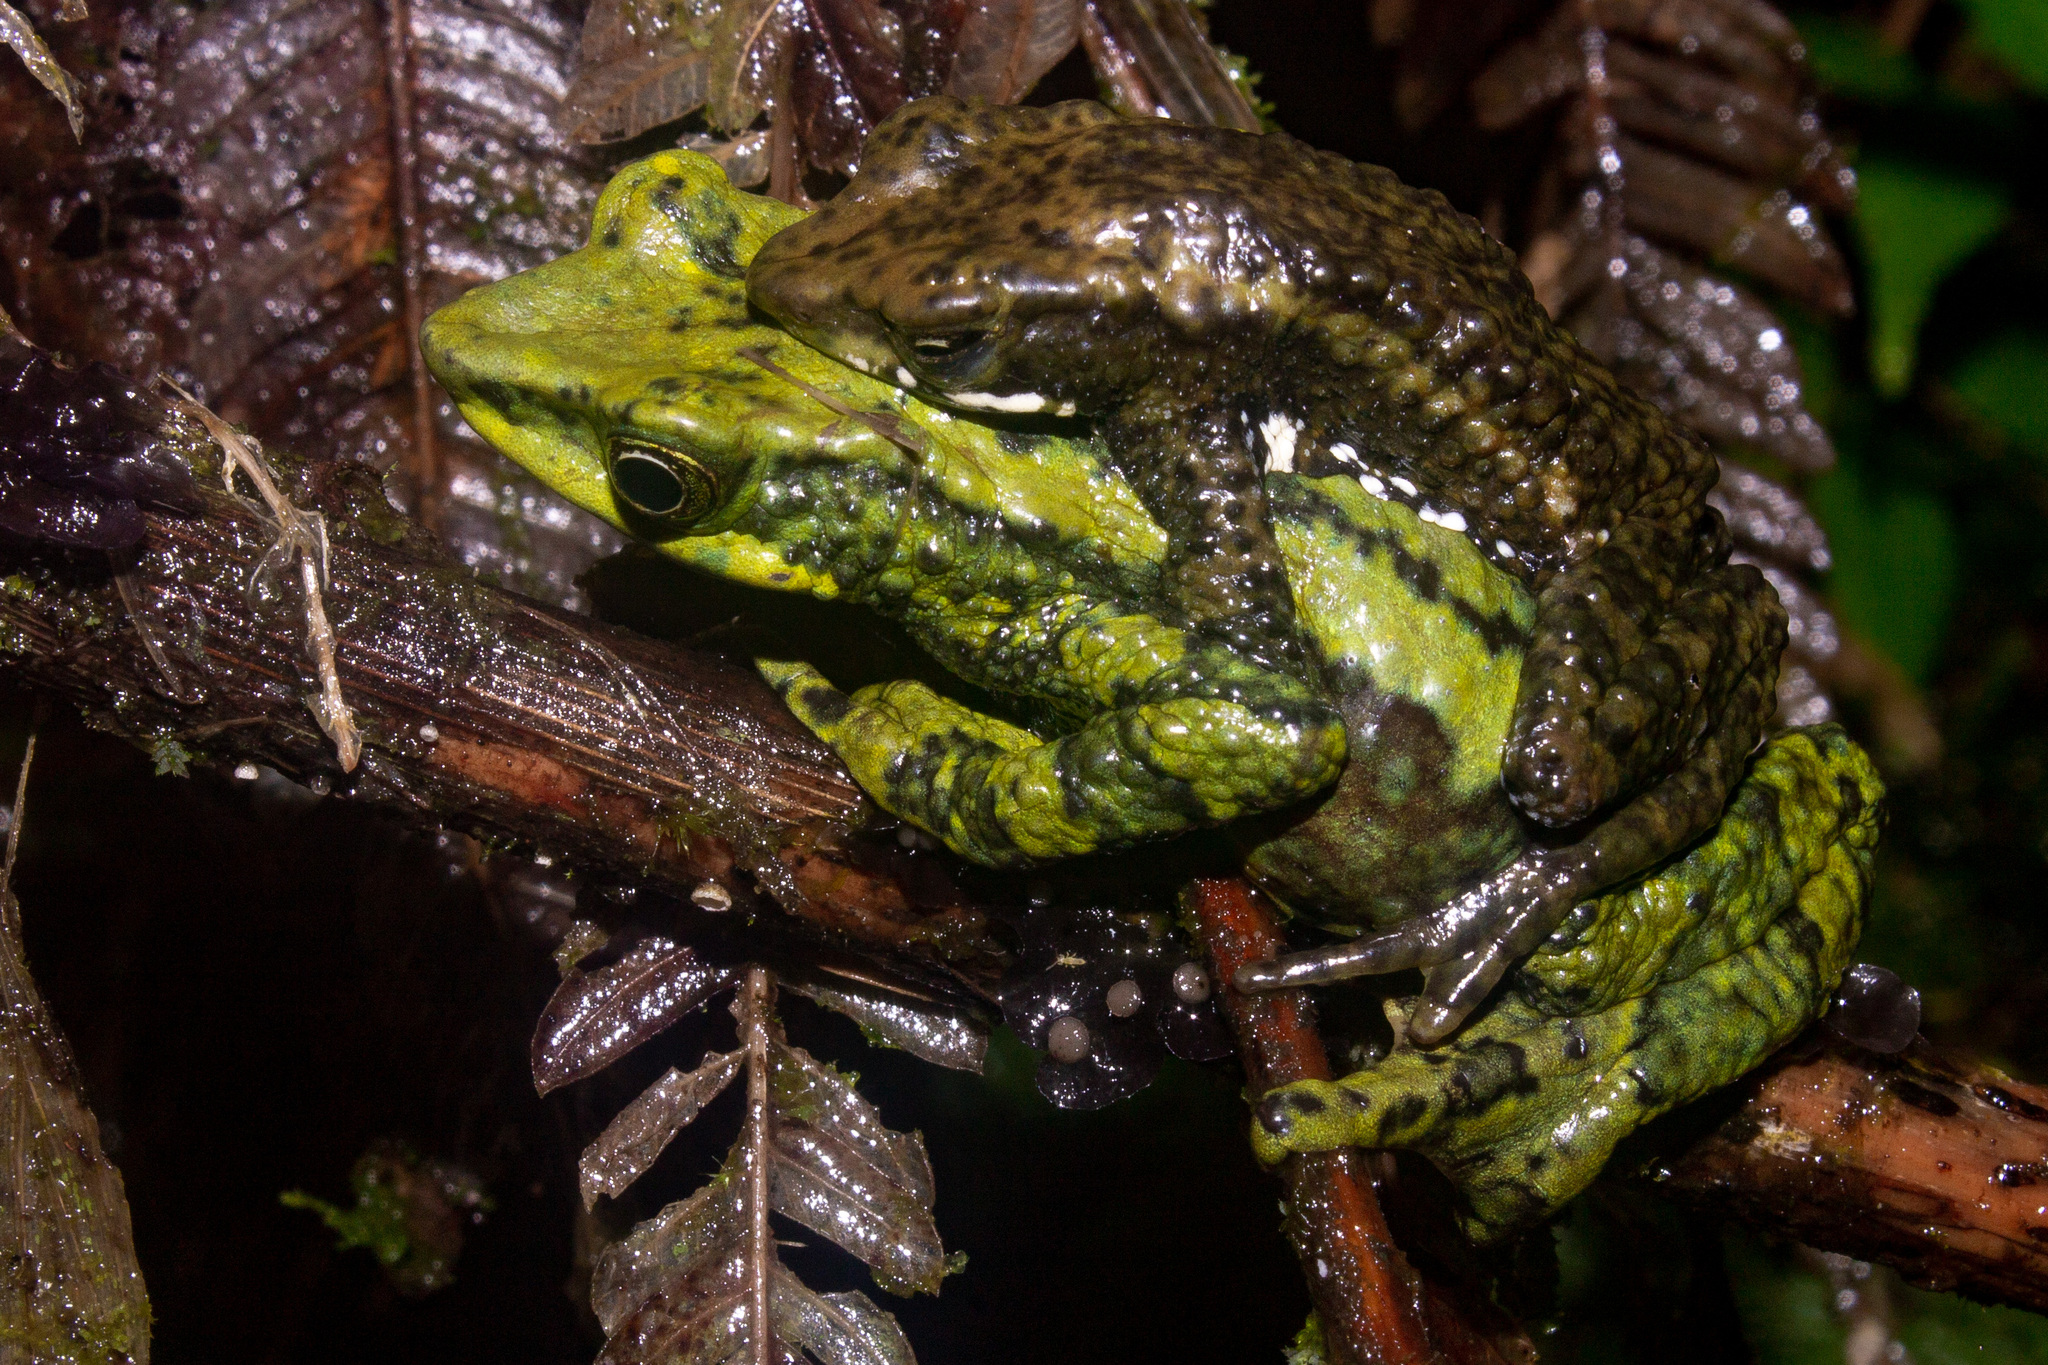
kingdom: Animalia
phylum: Chordata
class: Amphibia
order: Anura
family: Bufonidae
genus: Atelopus
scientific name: Atelopus laetissimus
